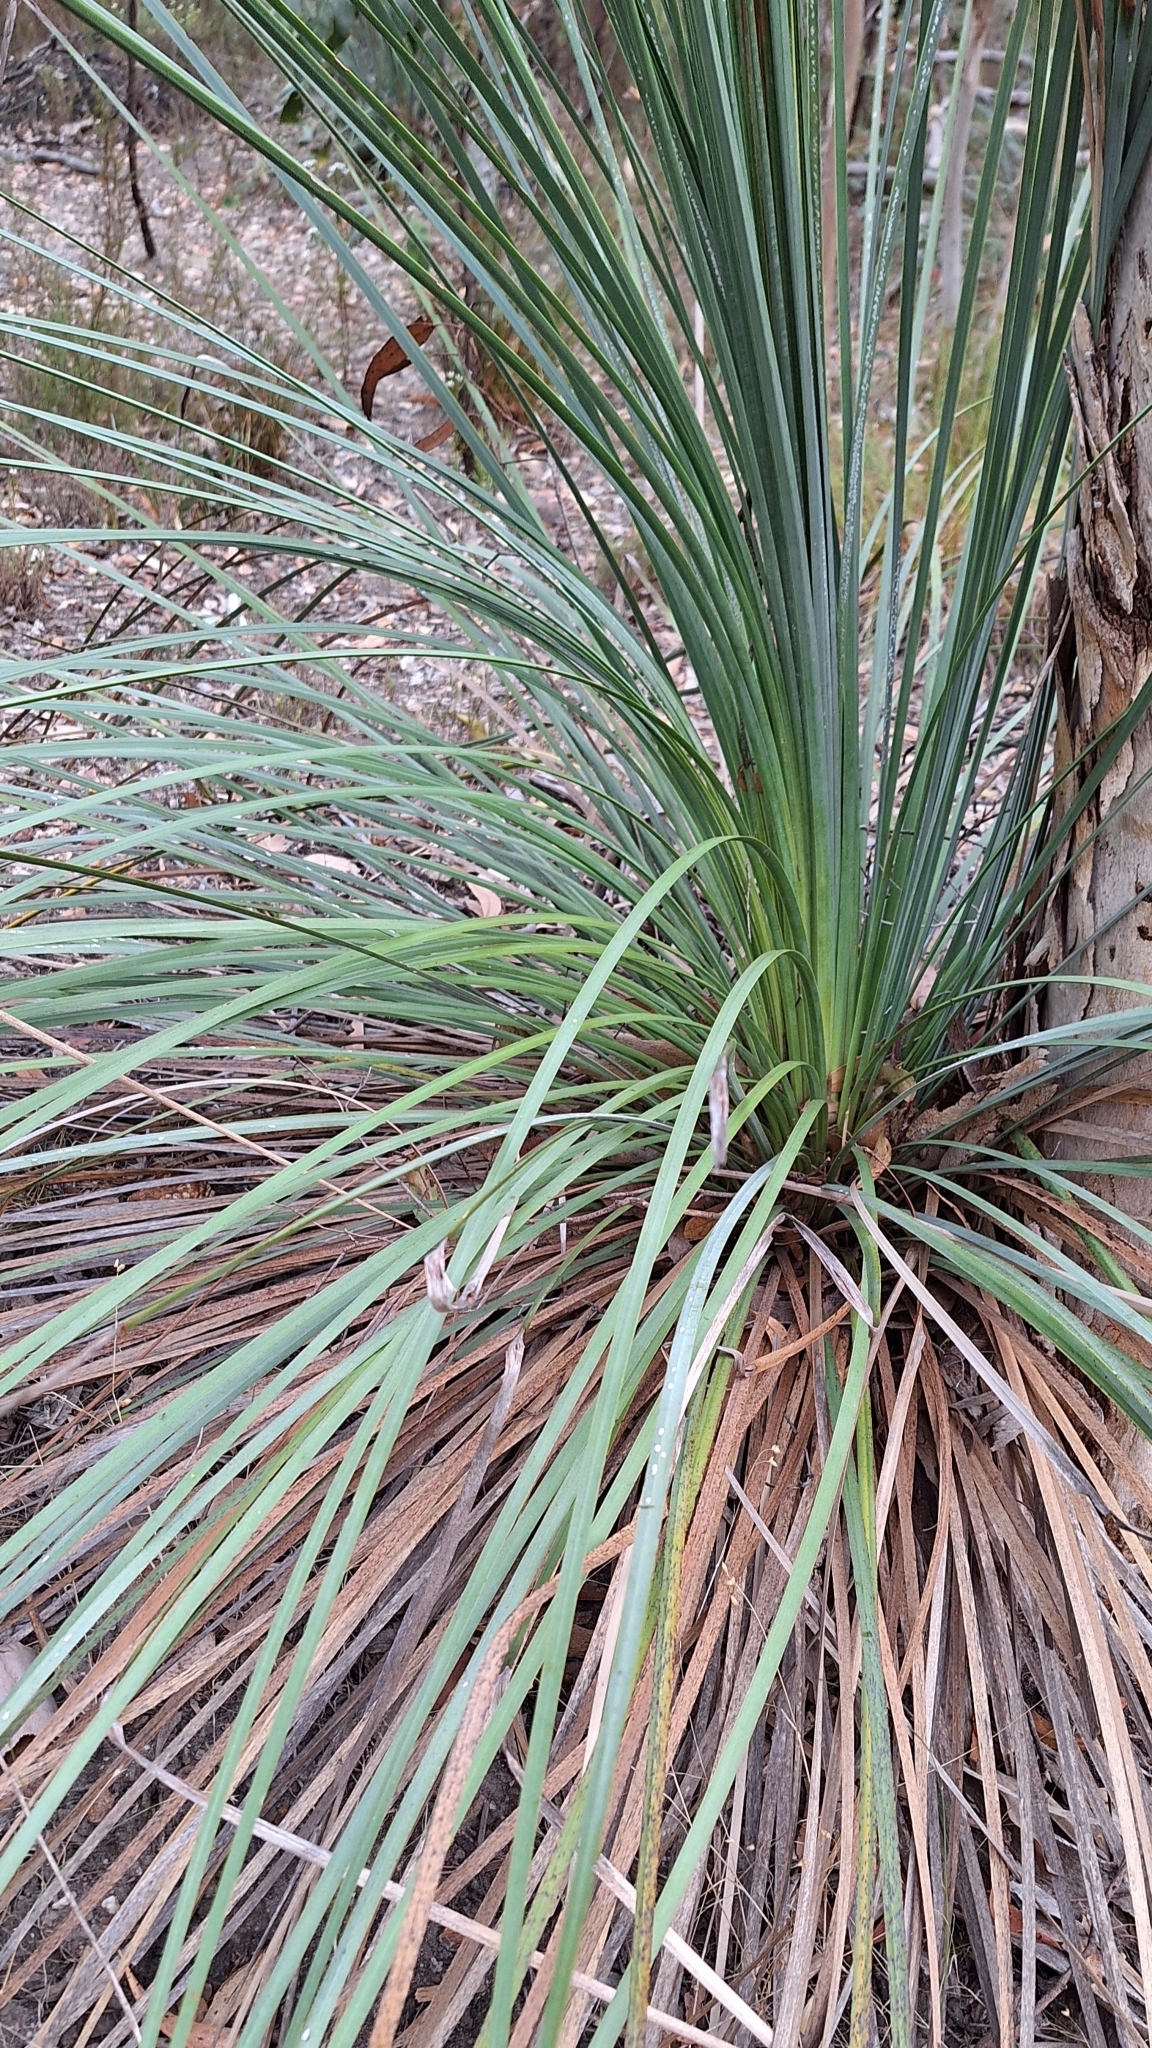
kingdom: Plantae
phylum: Tracheophyta
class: Liliopsida
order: Asparagales
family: Asphodelaceae
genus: Xanthorrhoea
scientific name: Xanthorrhoea semiplana
